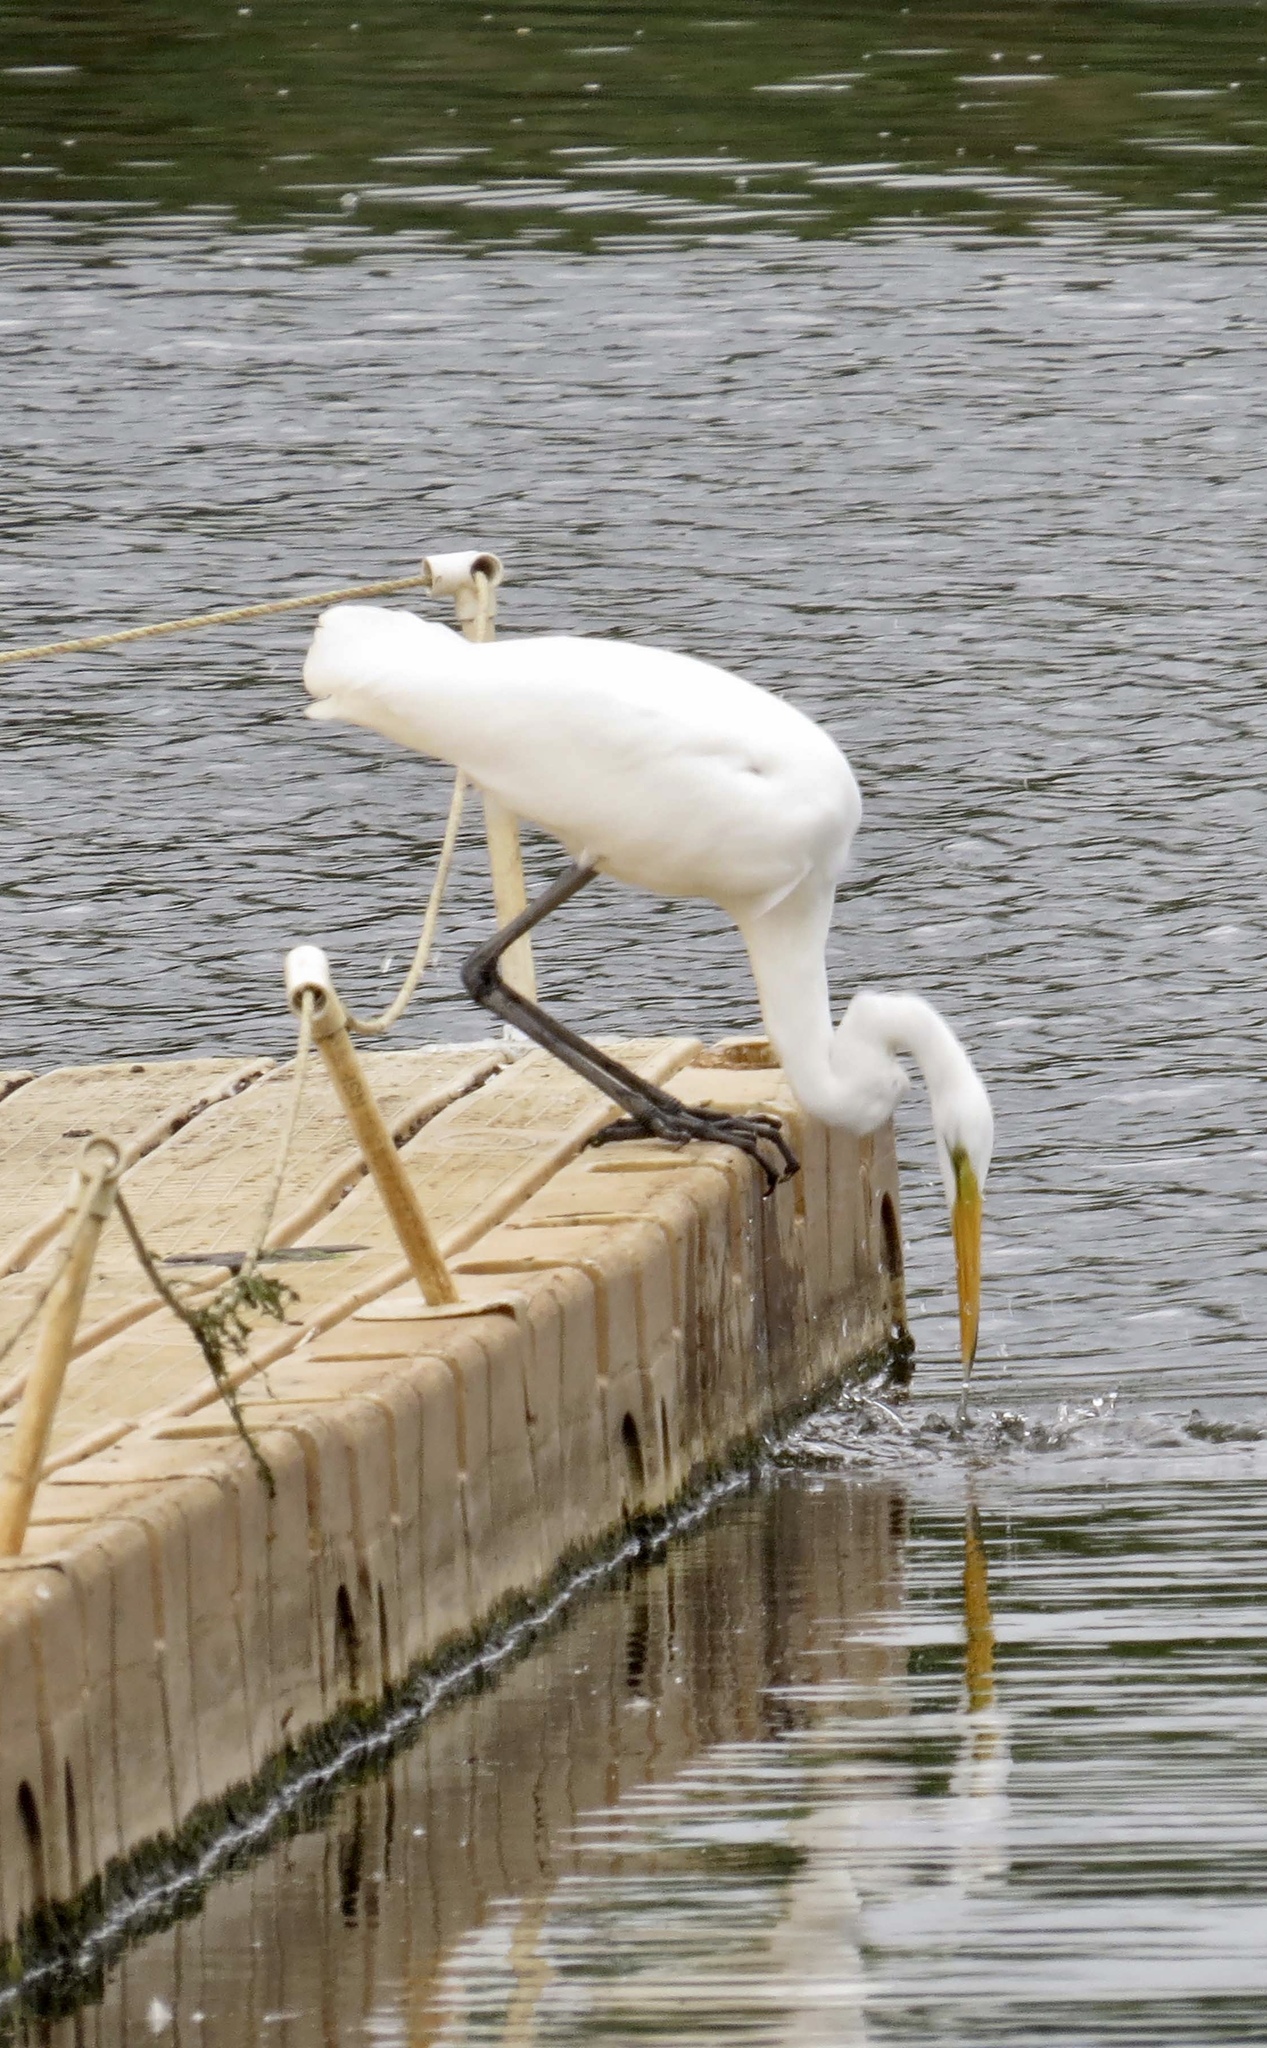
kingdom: Animalia
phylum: Chordata
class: Aves
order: Pelecaniformes
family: Ardeidae
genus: Ardea
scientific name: Ardea alba
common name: Great egret
